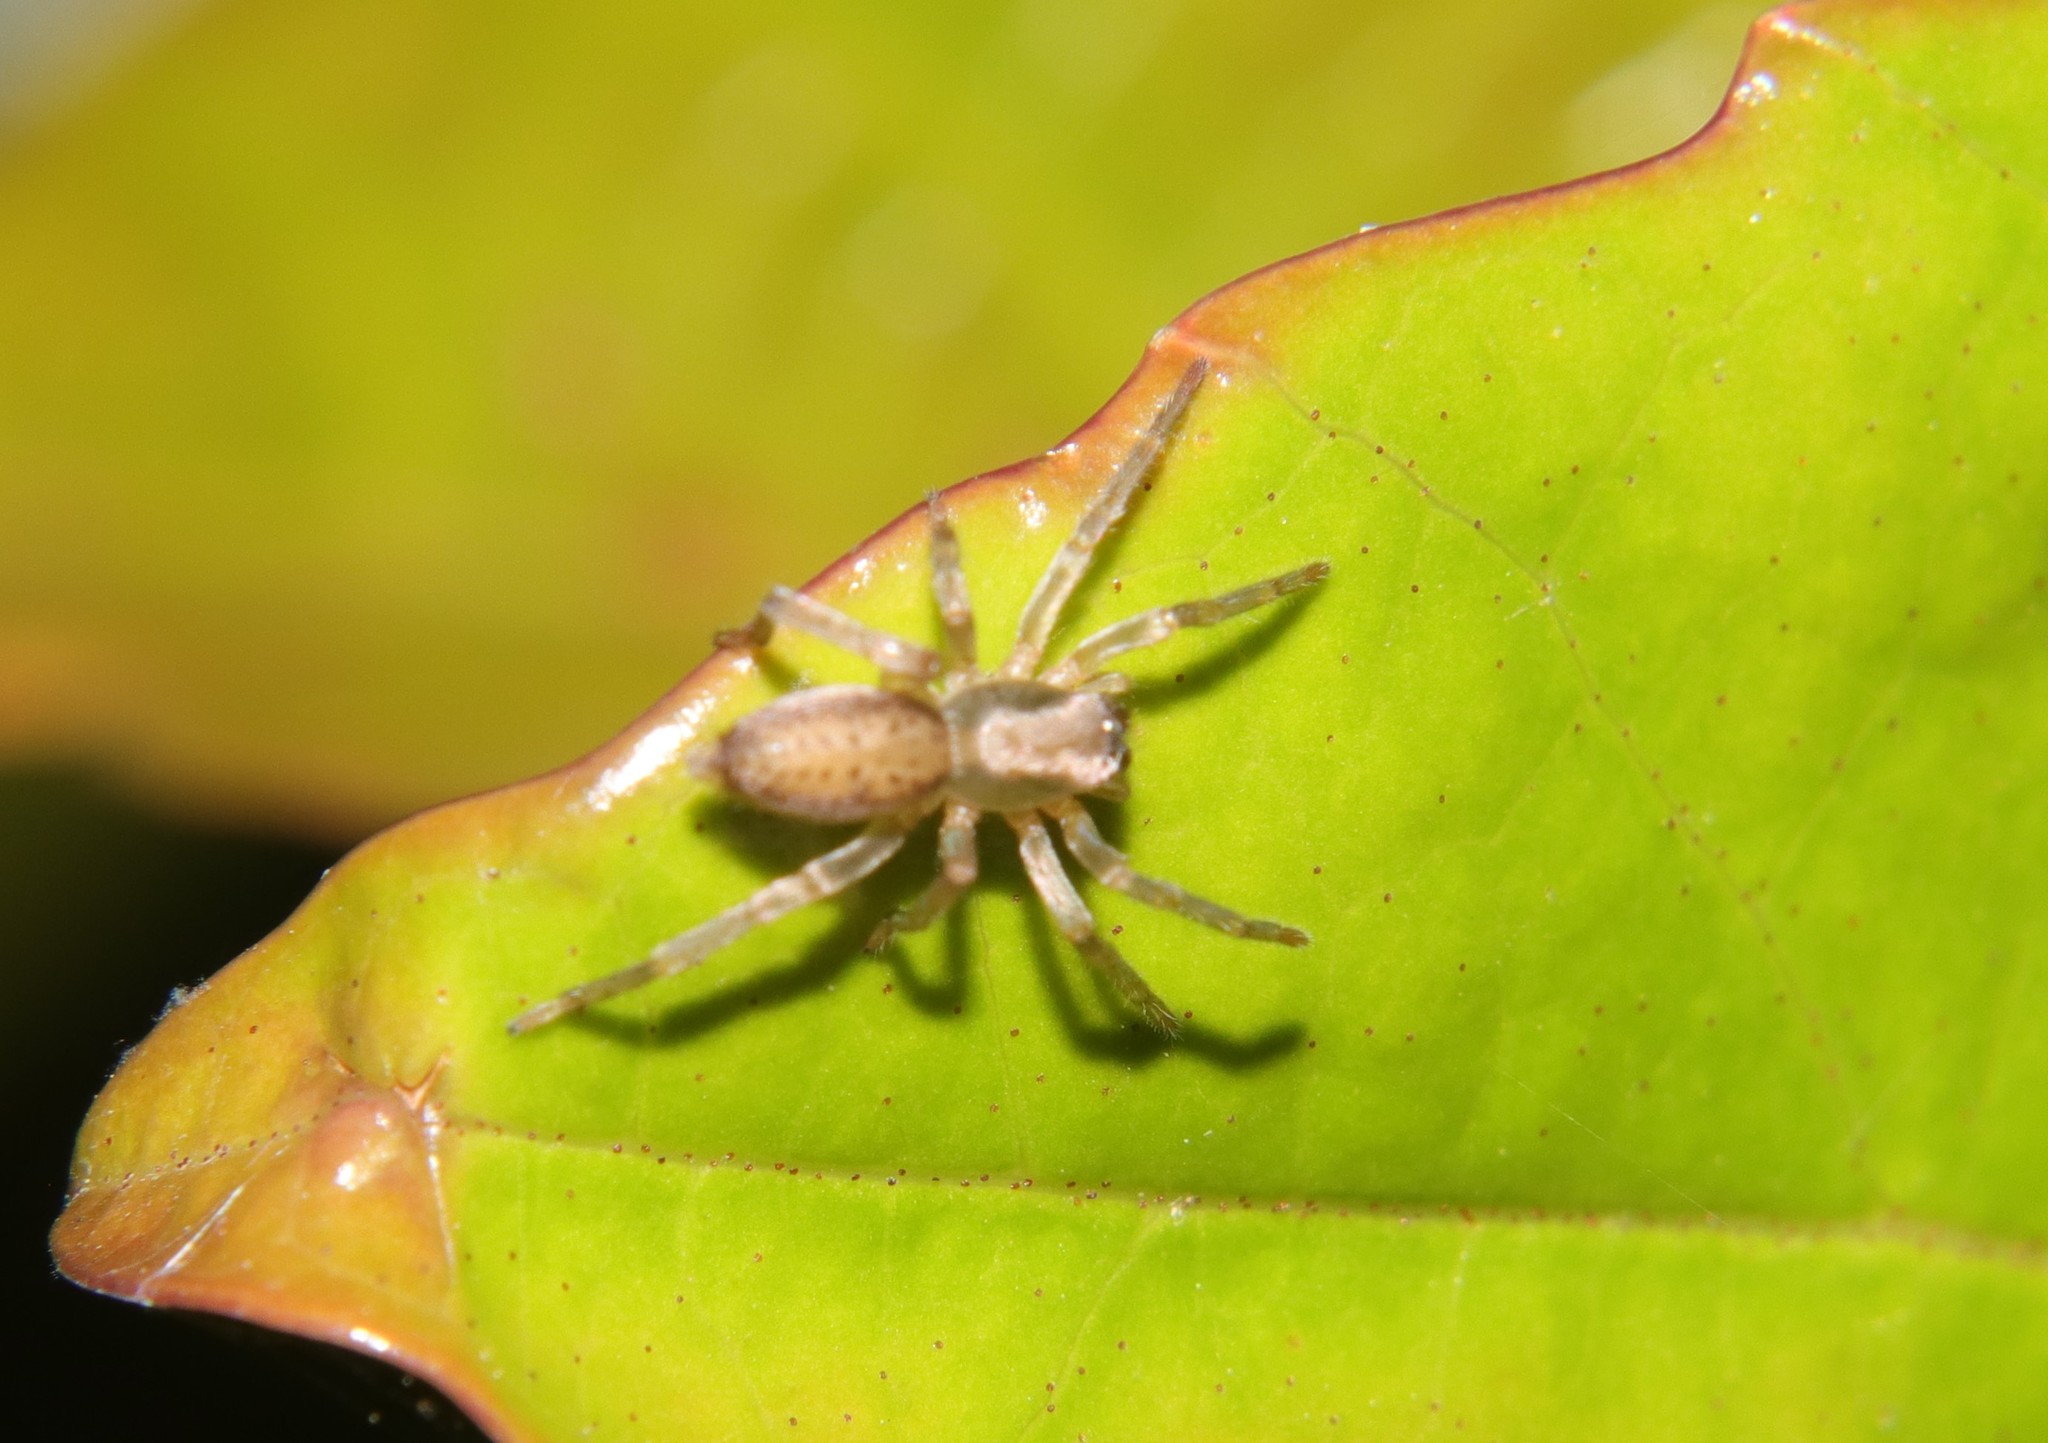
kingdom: Animalia
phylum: Arthropoda
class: Arachnida
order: Araneae
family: Clubionidae
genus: Clubiona
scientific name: Clubiona peculiaris
